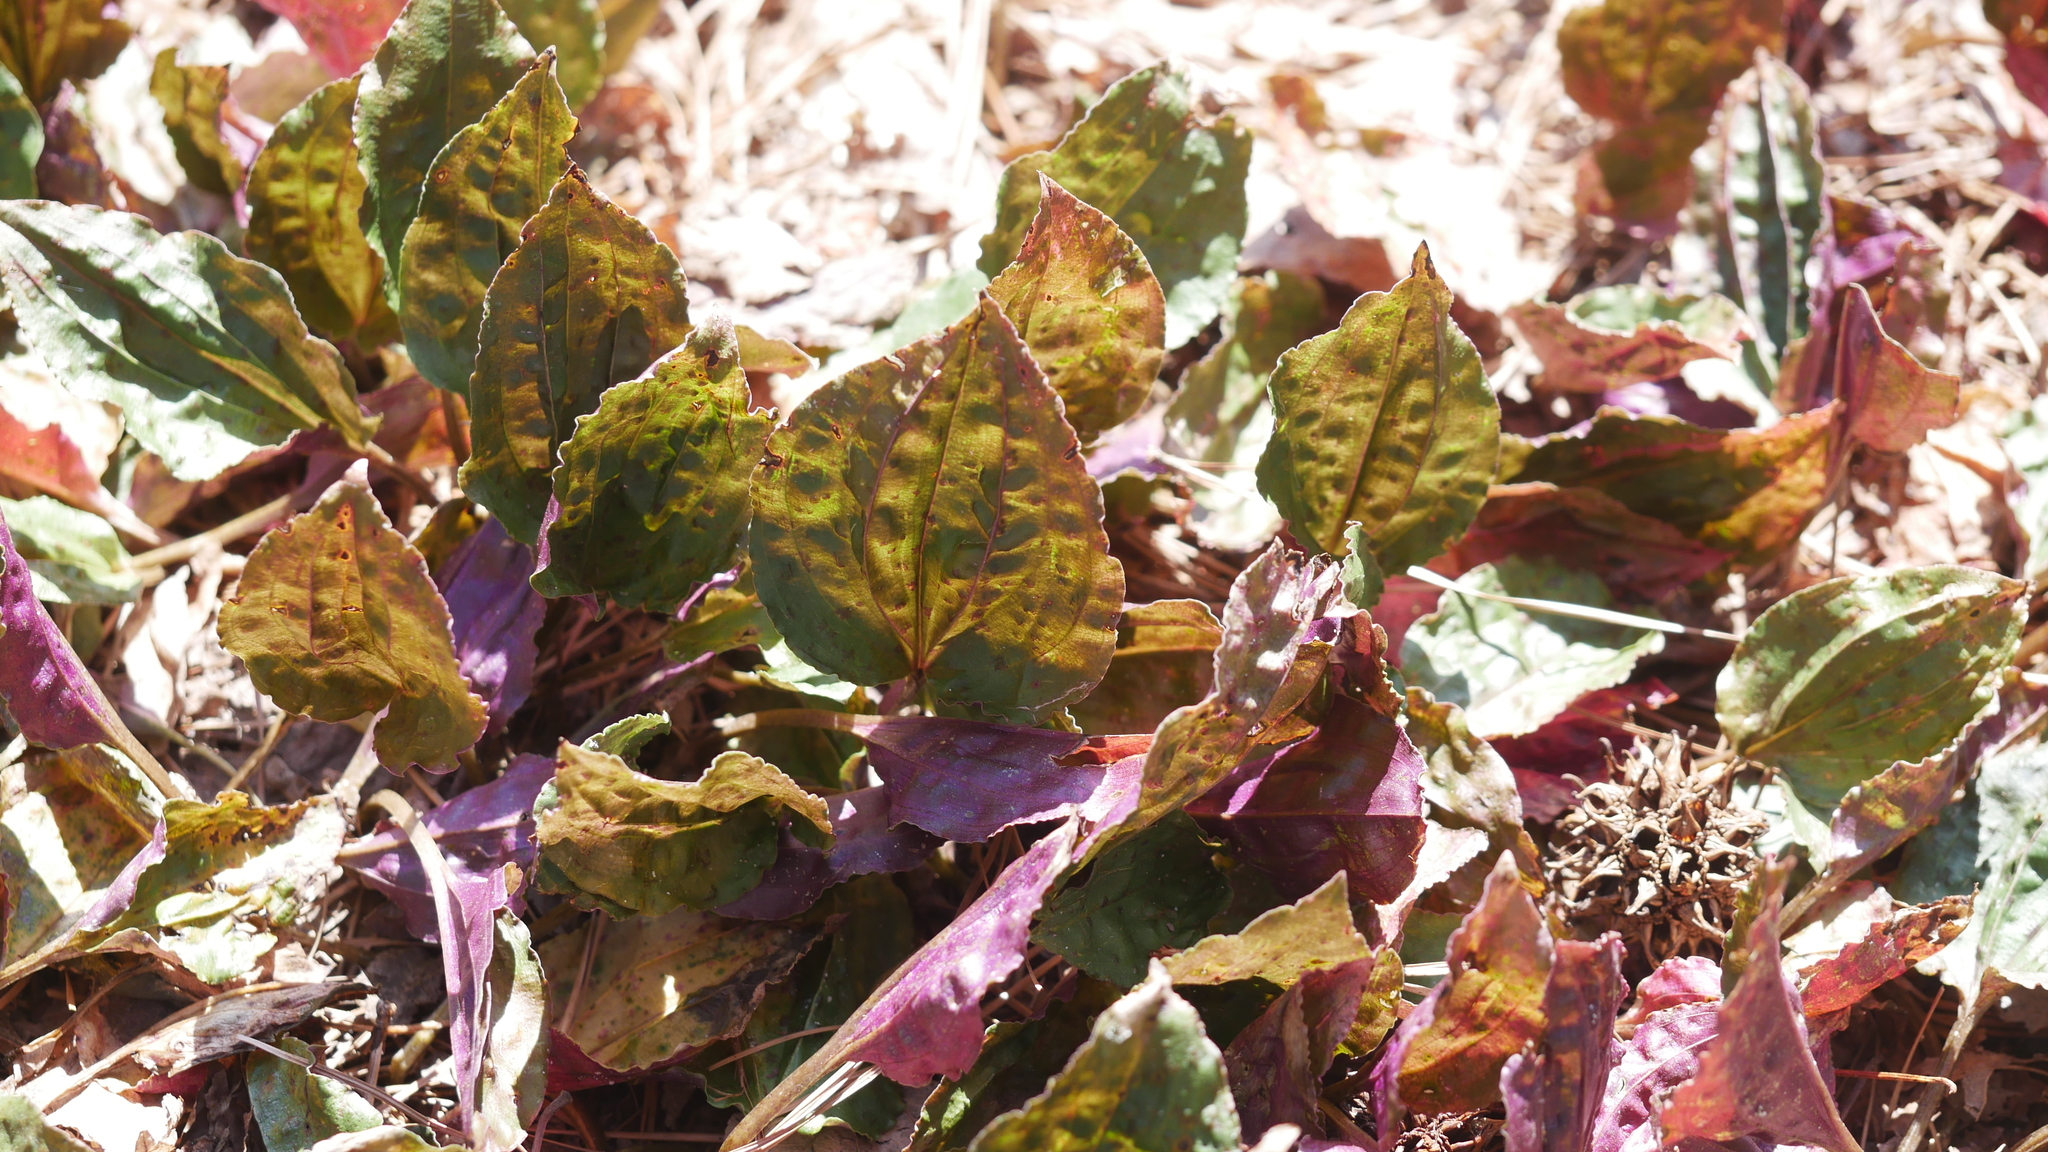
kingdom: Plantae
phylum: Tracheophyta
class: Liliopsida
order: Asparagales
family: Orchidaceae
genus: Tipularia
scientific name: Tipularia discolor
